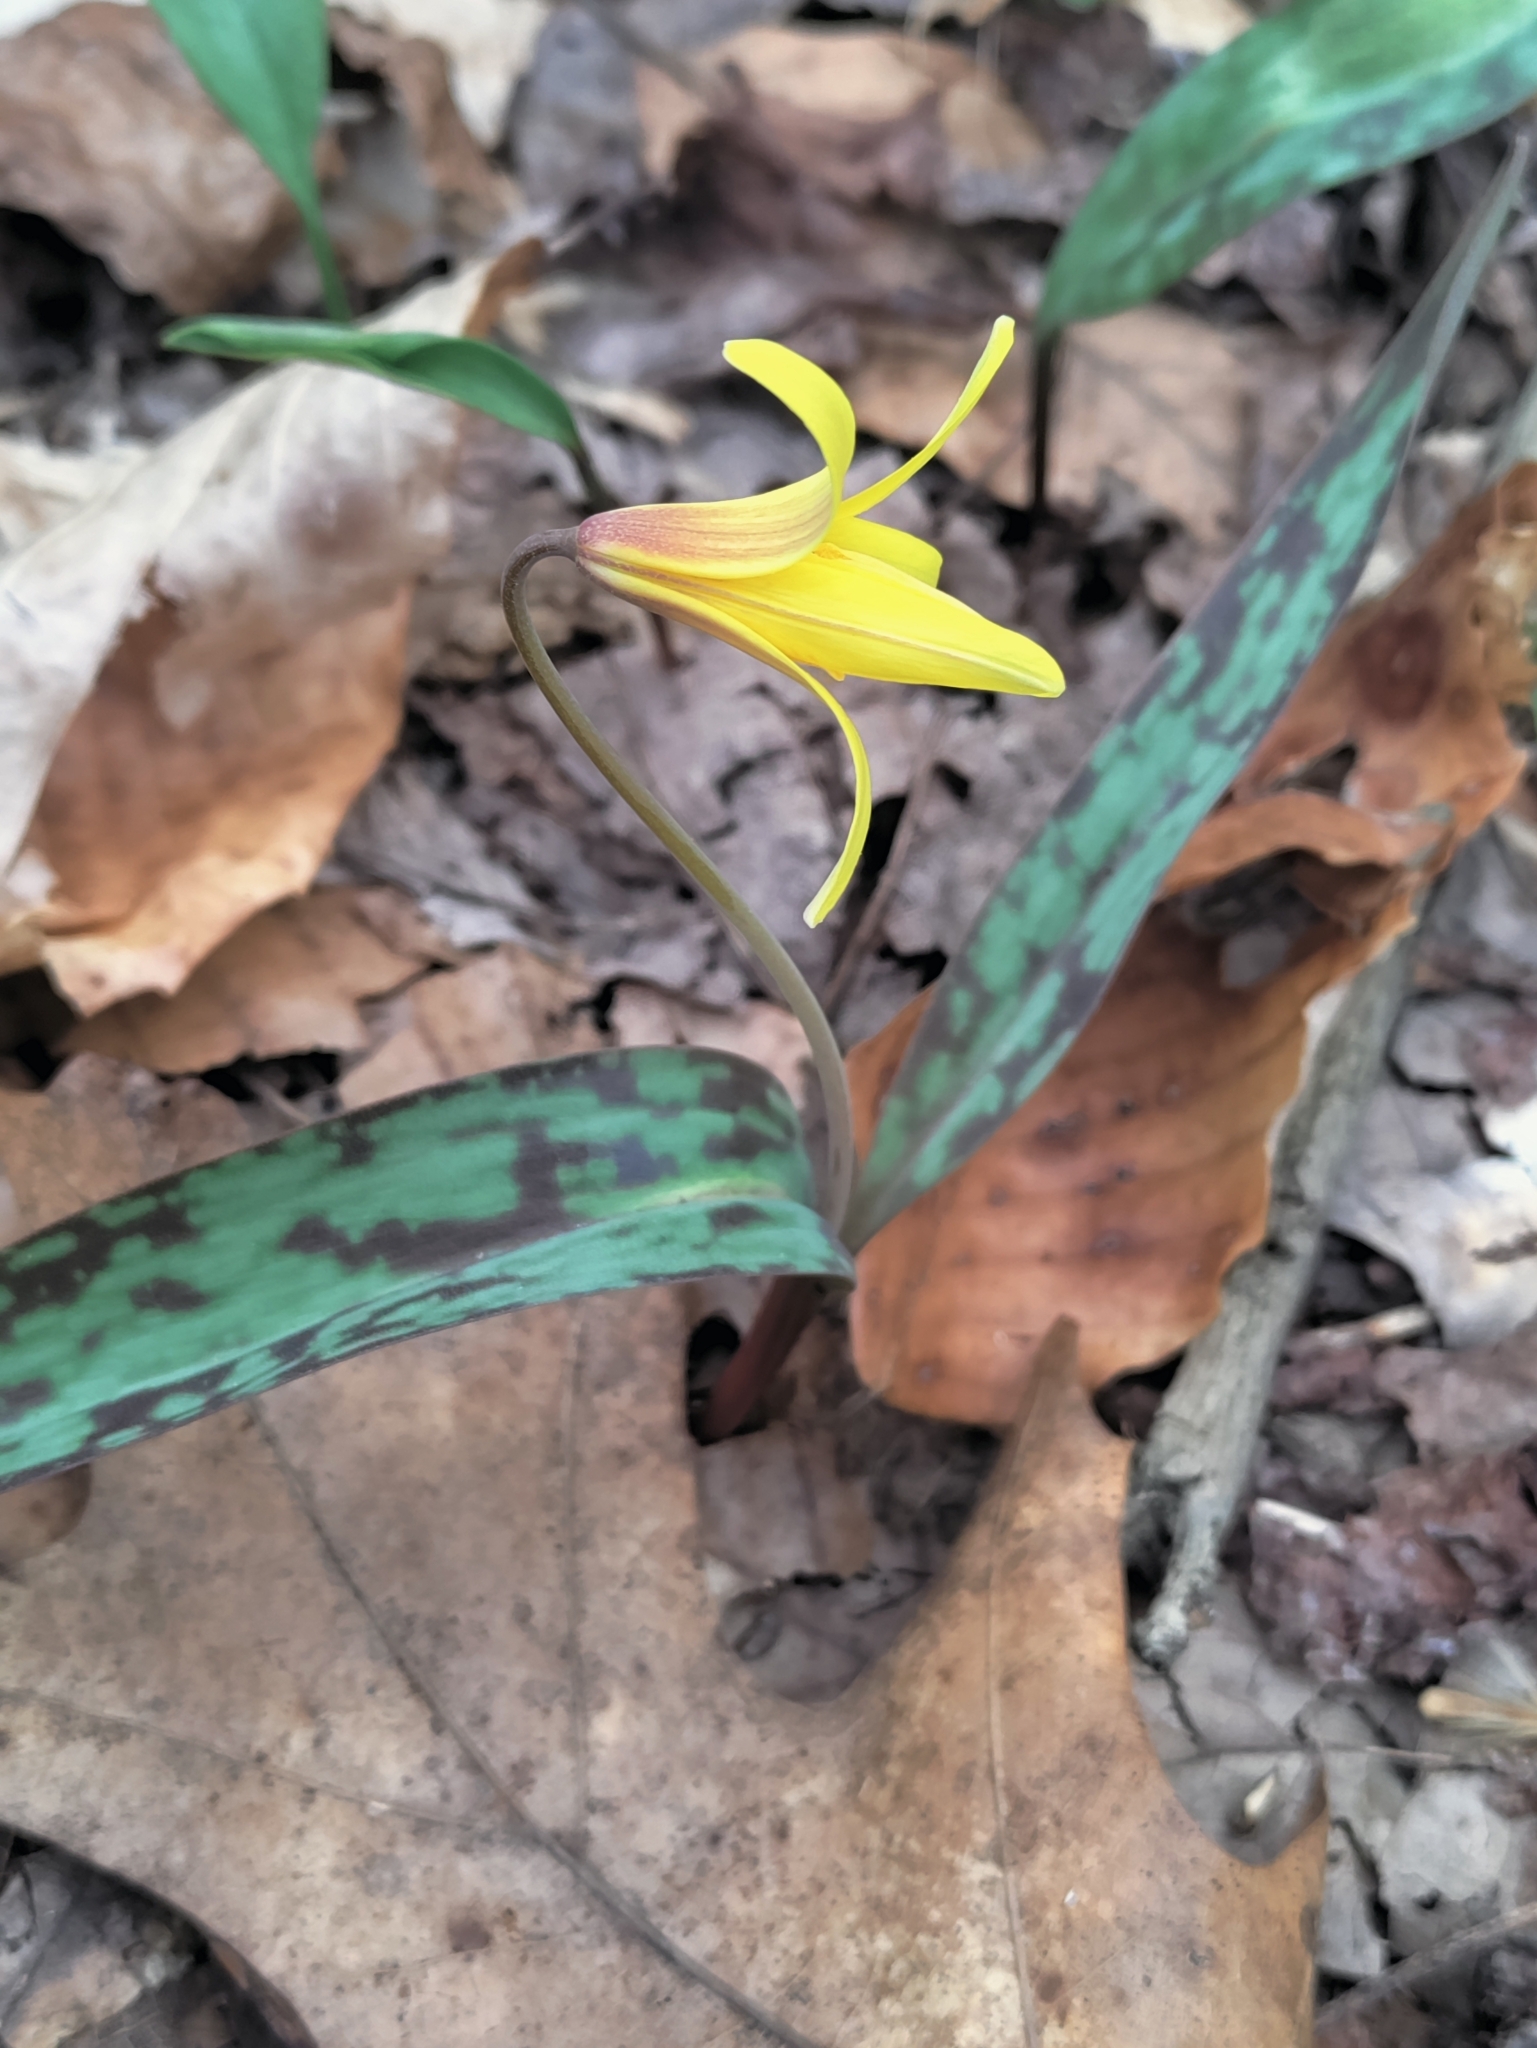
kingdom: Plantae
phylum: Tracheophyta
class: Liliopsida
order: Liliales
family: Liliaceae
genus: Erythronium
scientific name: Erythronium americanum
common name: Yellow adder's-tongue
